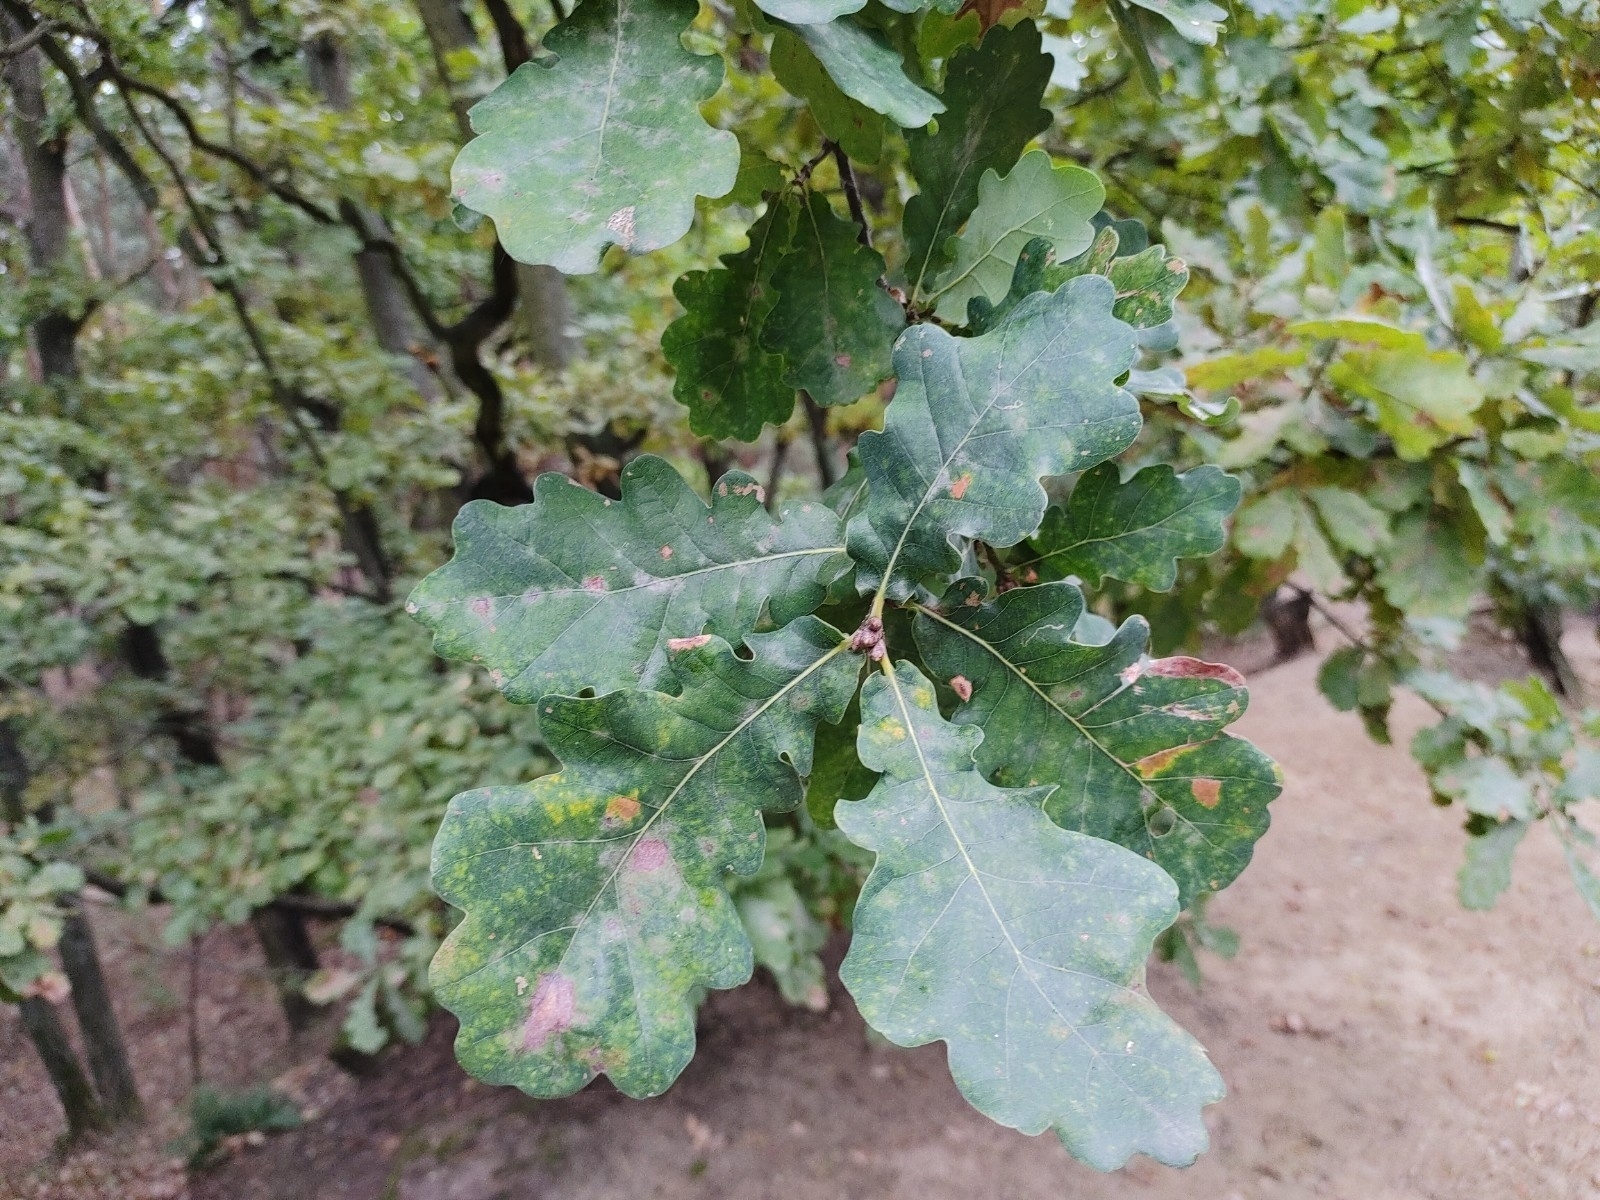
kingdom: Plantae
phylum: Tracheophyta
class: Magnoliopsida
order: Fagales
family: Fagaceae
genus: Quercus
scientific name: Quercus robur
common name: Pedunculate oak
